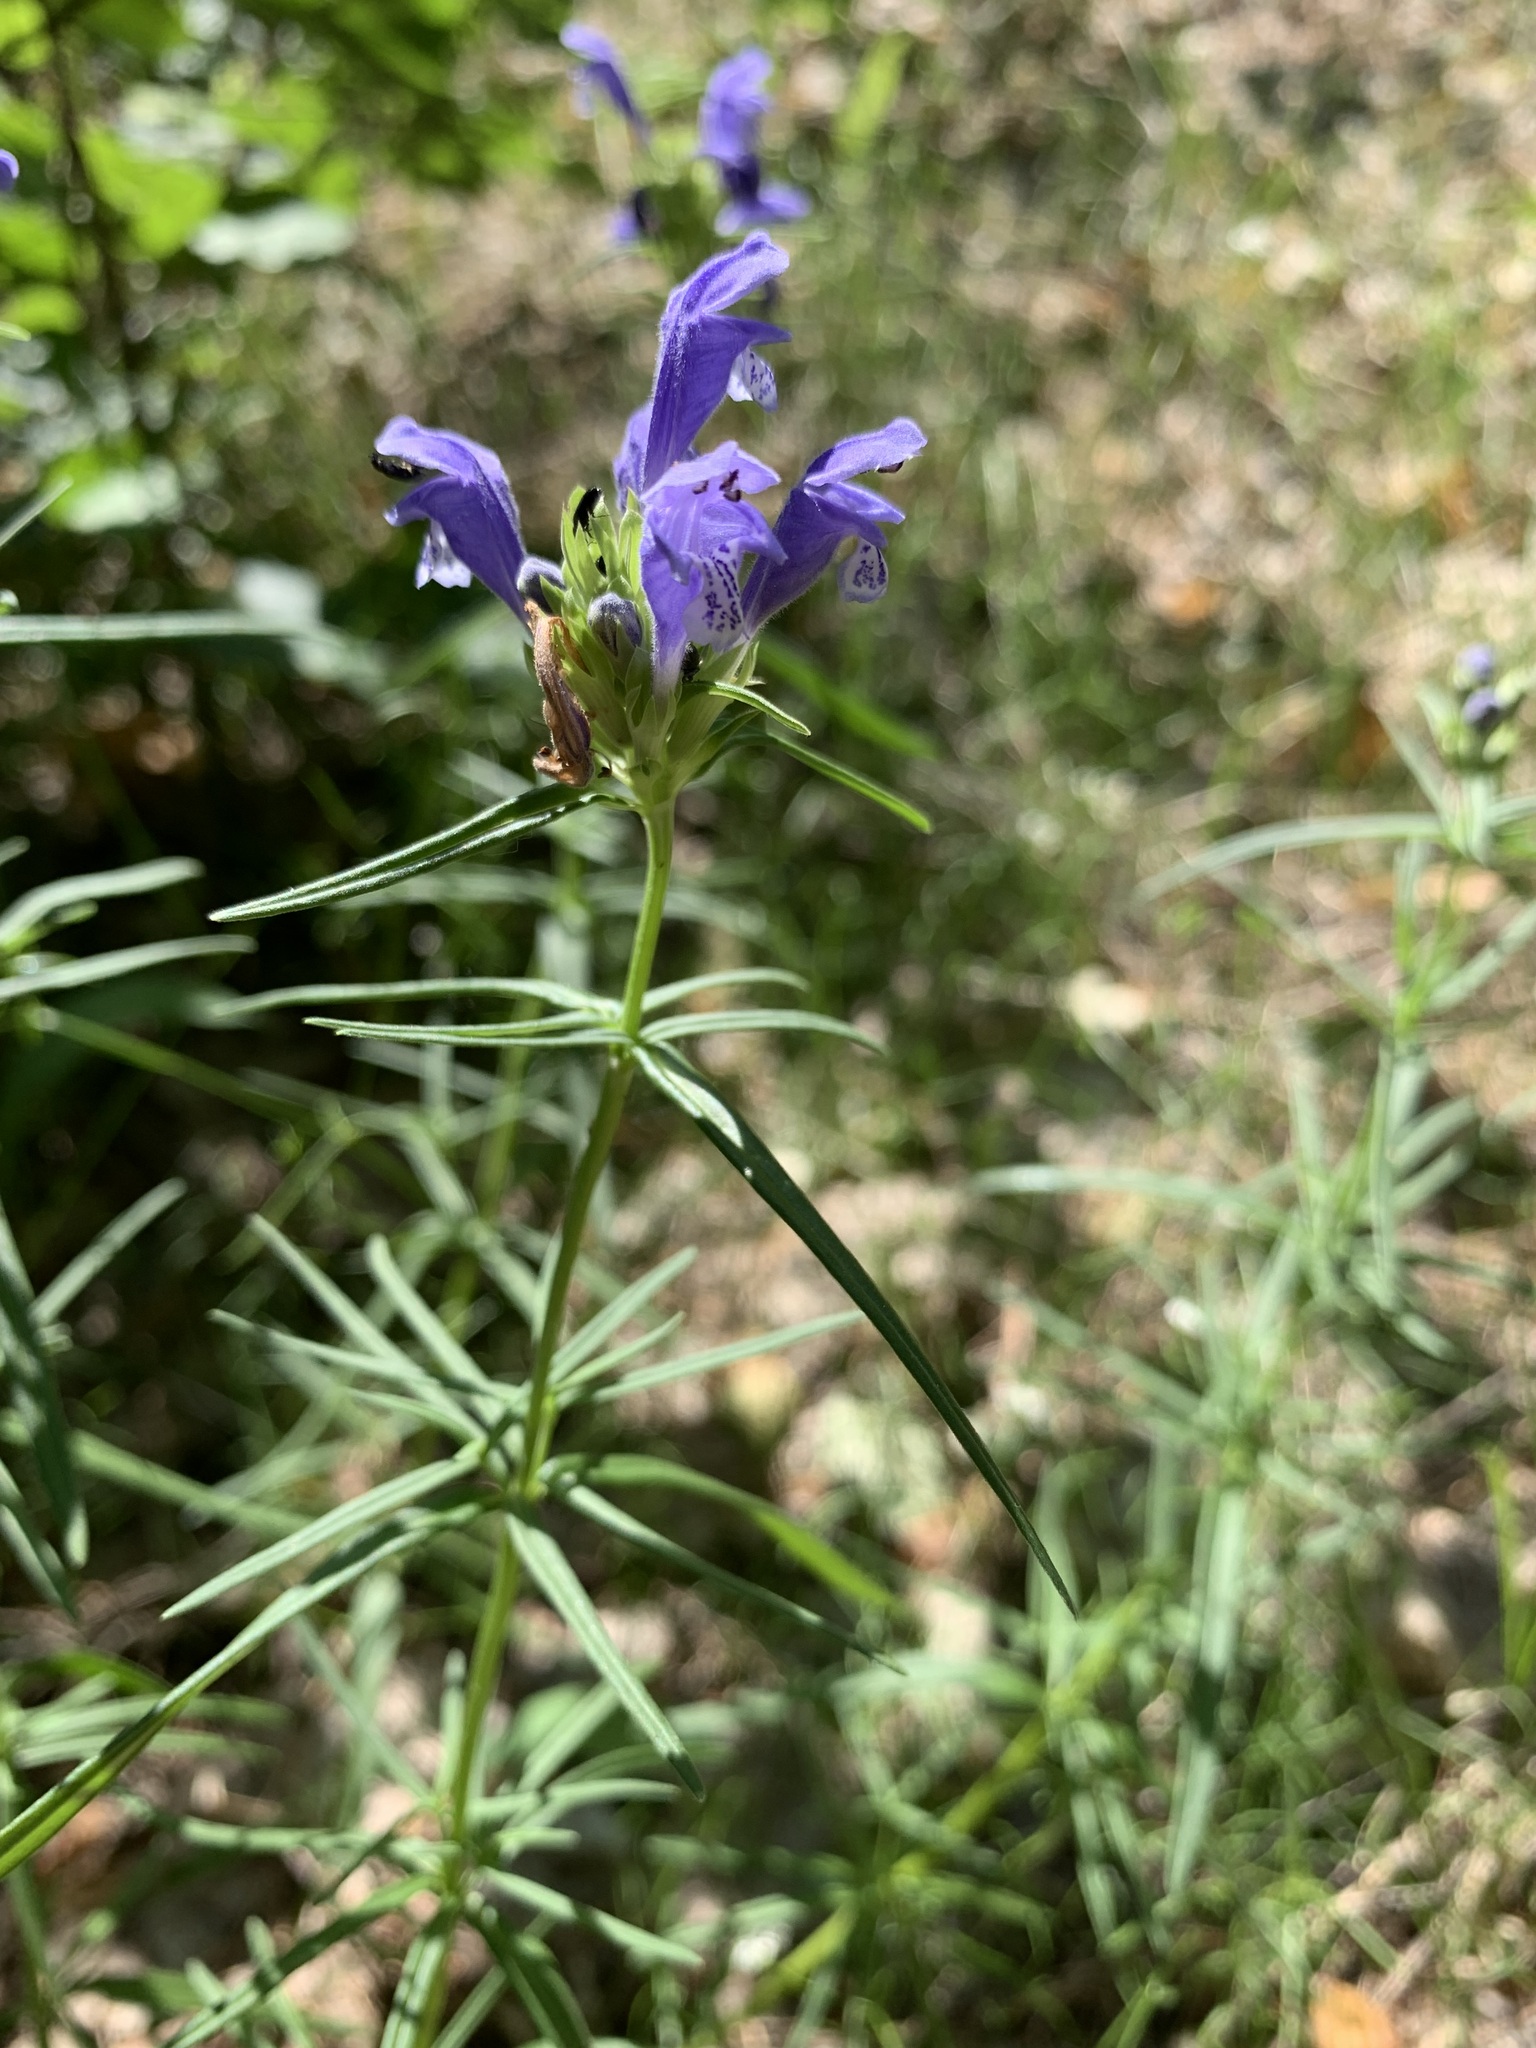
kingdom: Plantae
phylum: Tracheophyta
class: Magnoliopsida
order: Lamiales
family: Lamiaceae
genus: Dracocephalum
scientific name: Dracocephalum ruyschiana
